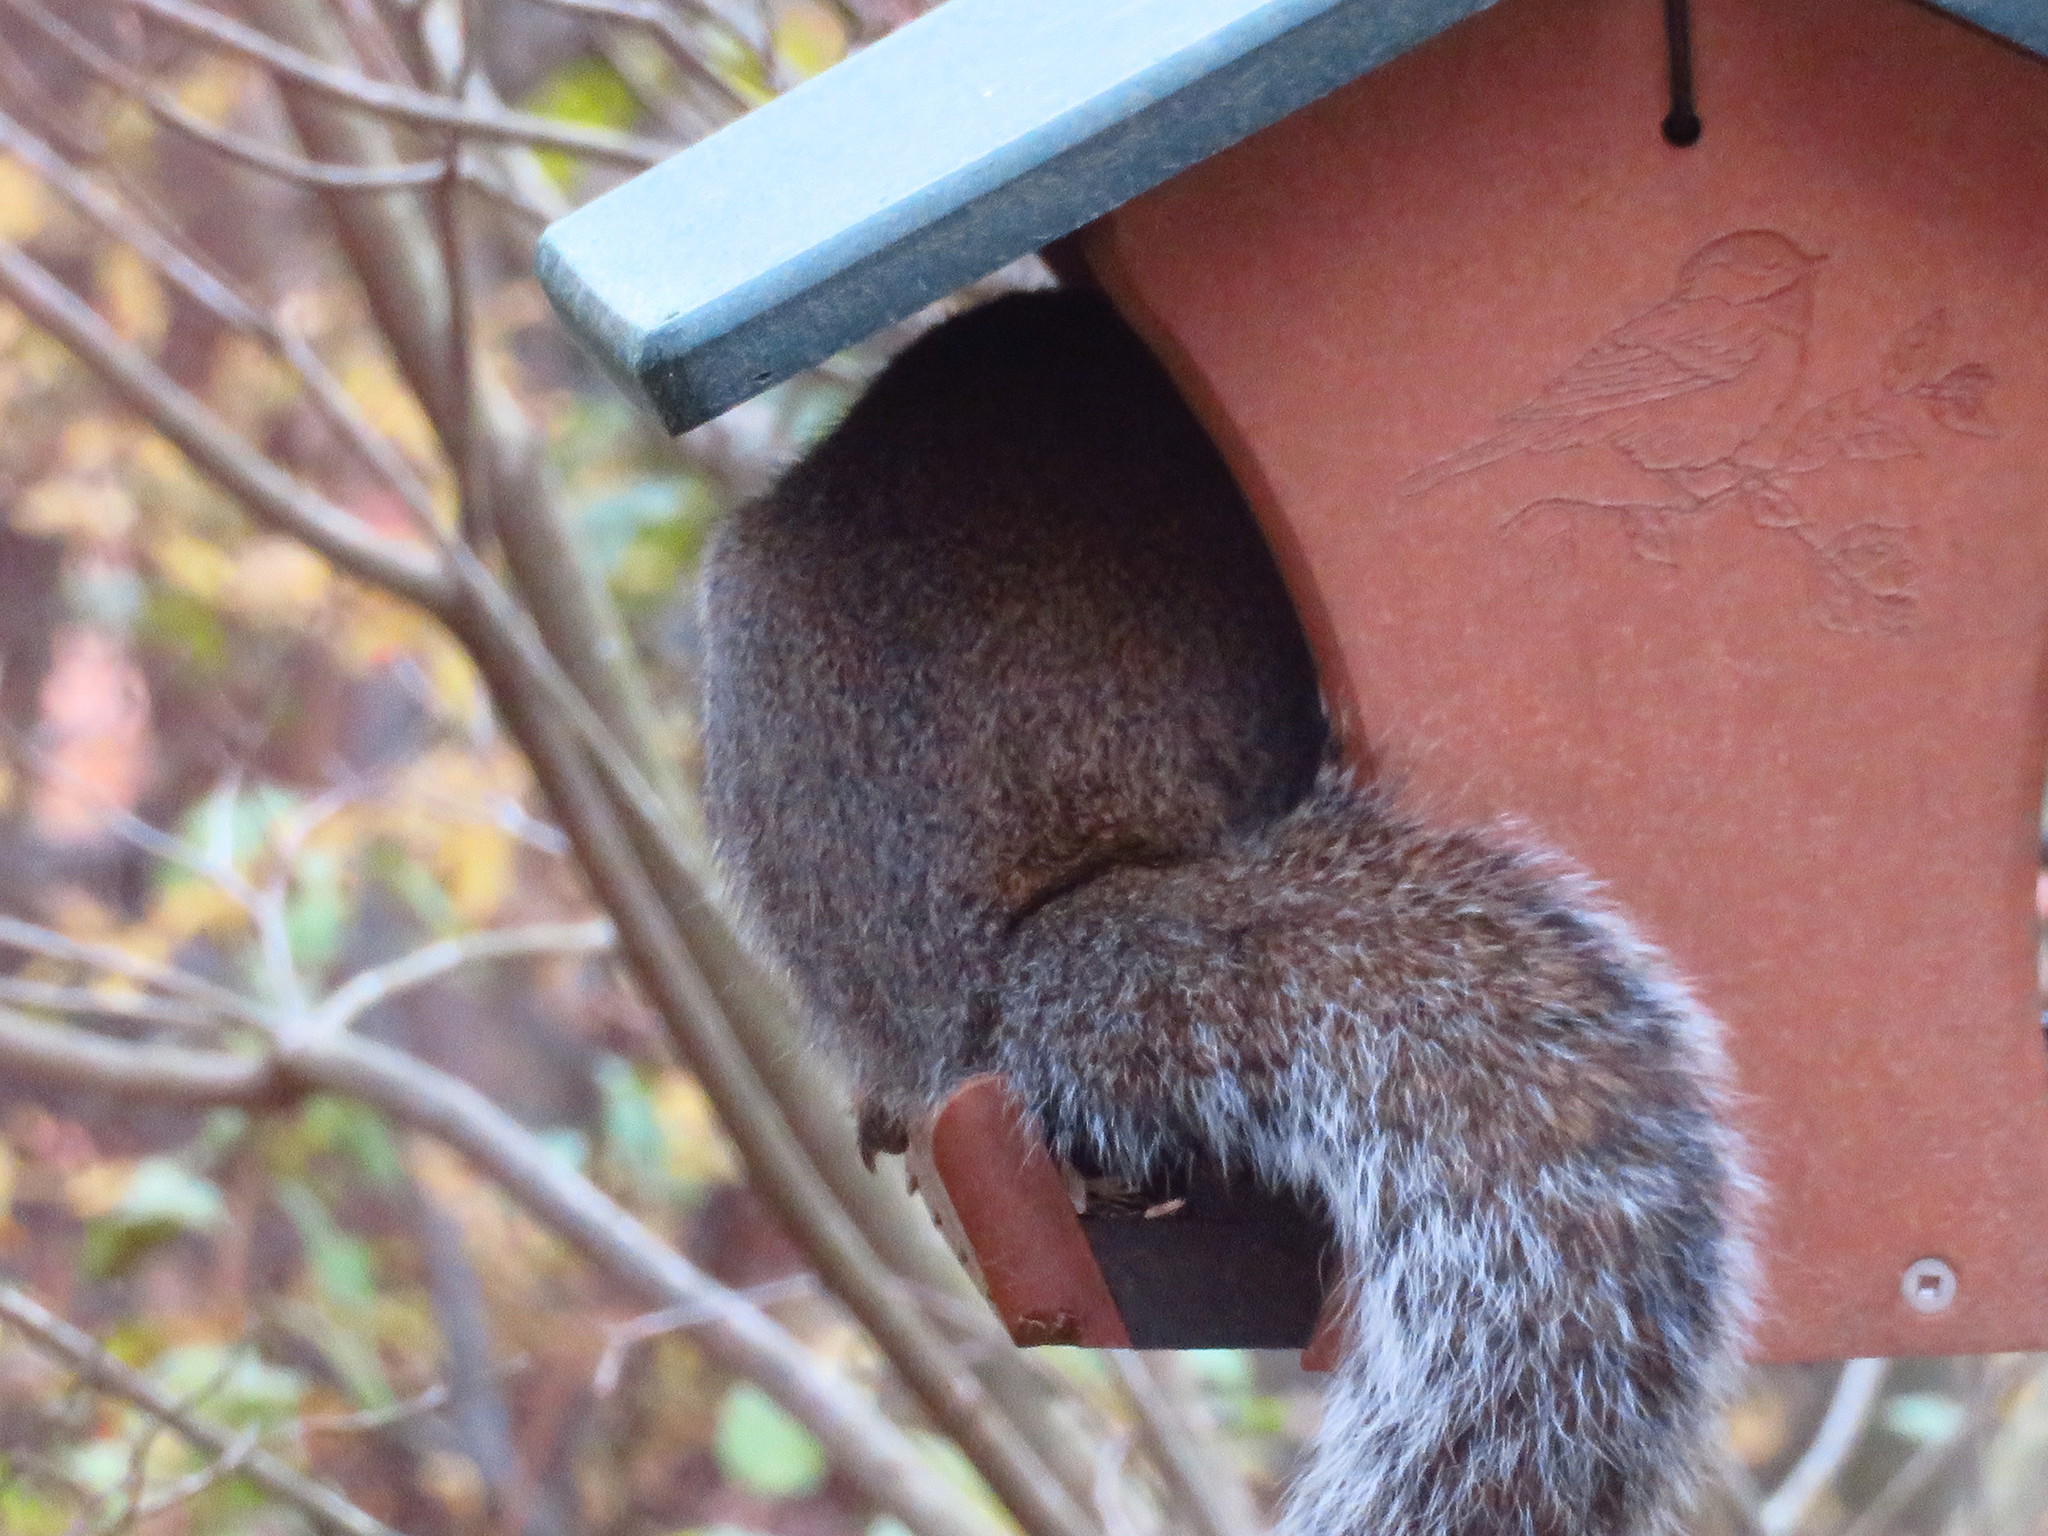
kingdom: Animalia
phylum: Chordata
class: Mammalia
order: Rodentia
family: Sciuridae
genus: Sciurus
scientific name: Sciurus carolinensis
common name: Eastern gray squirrel
